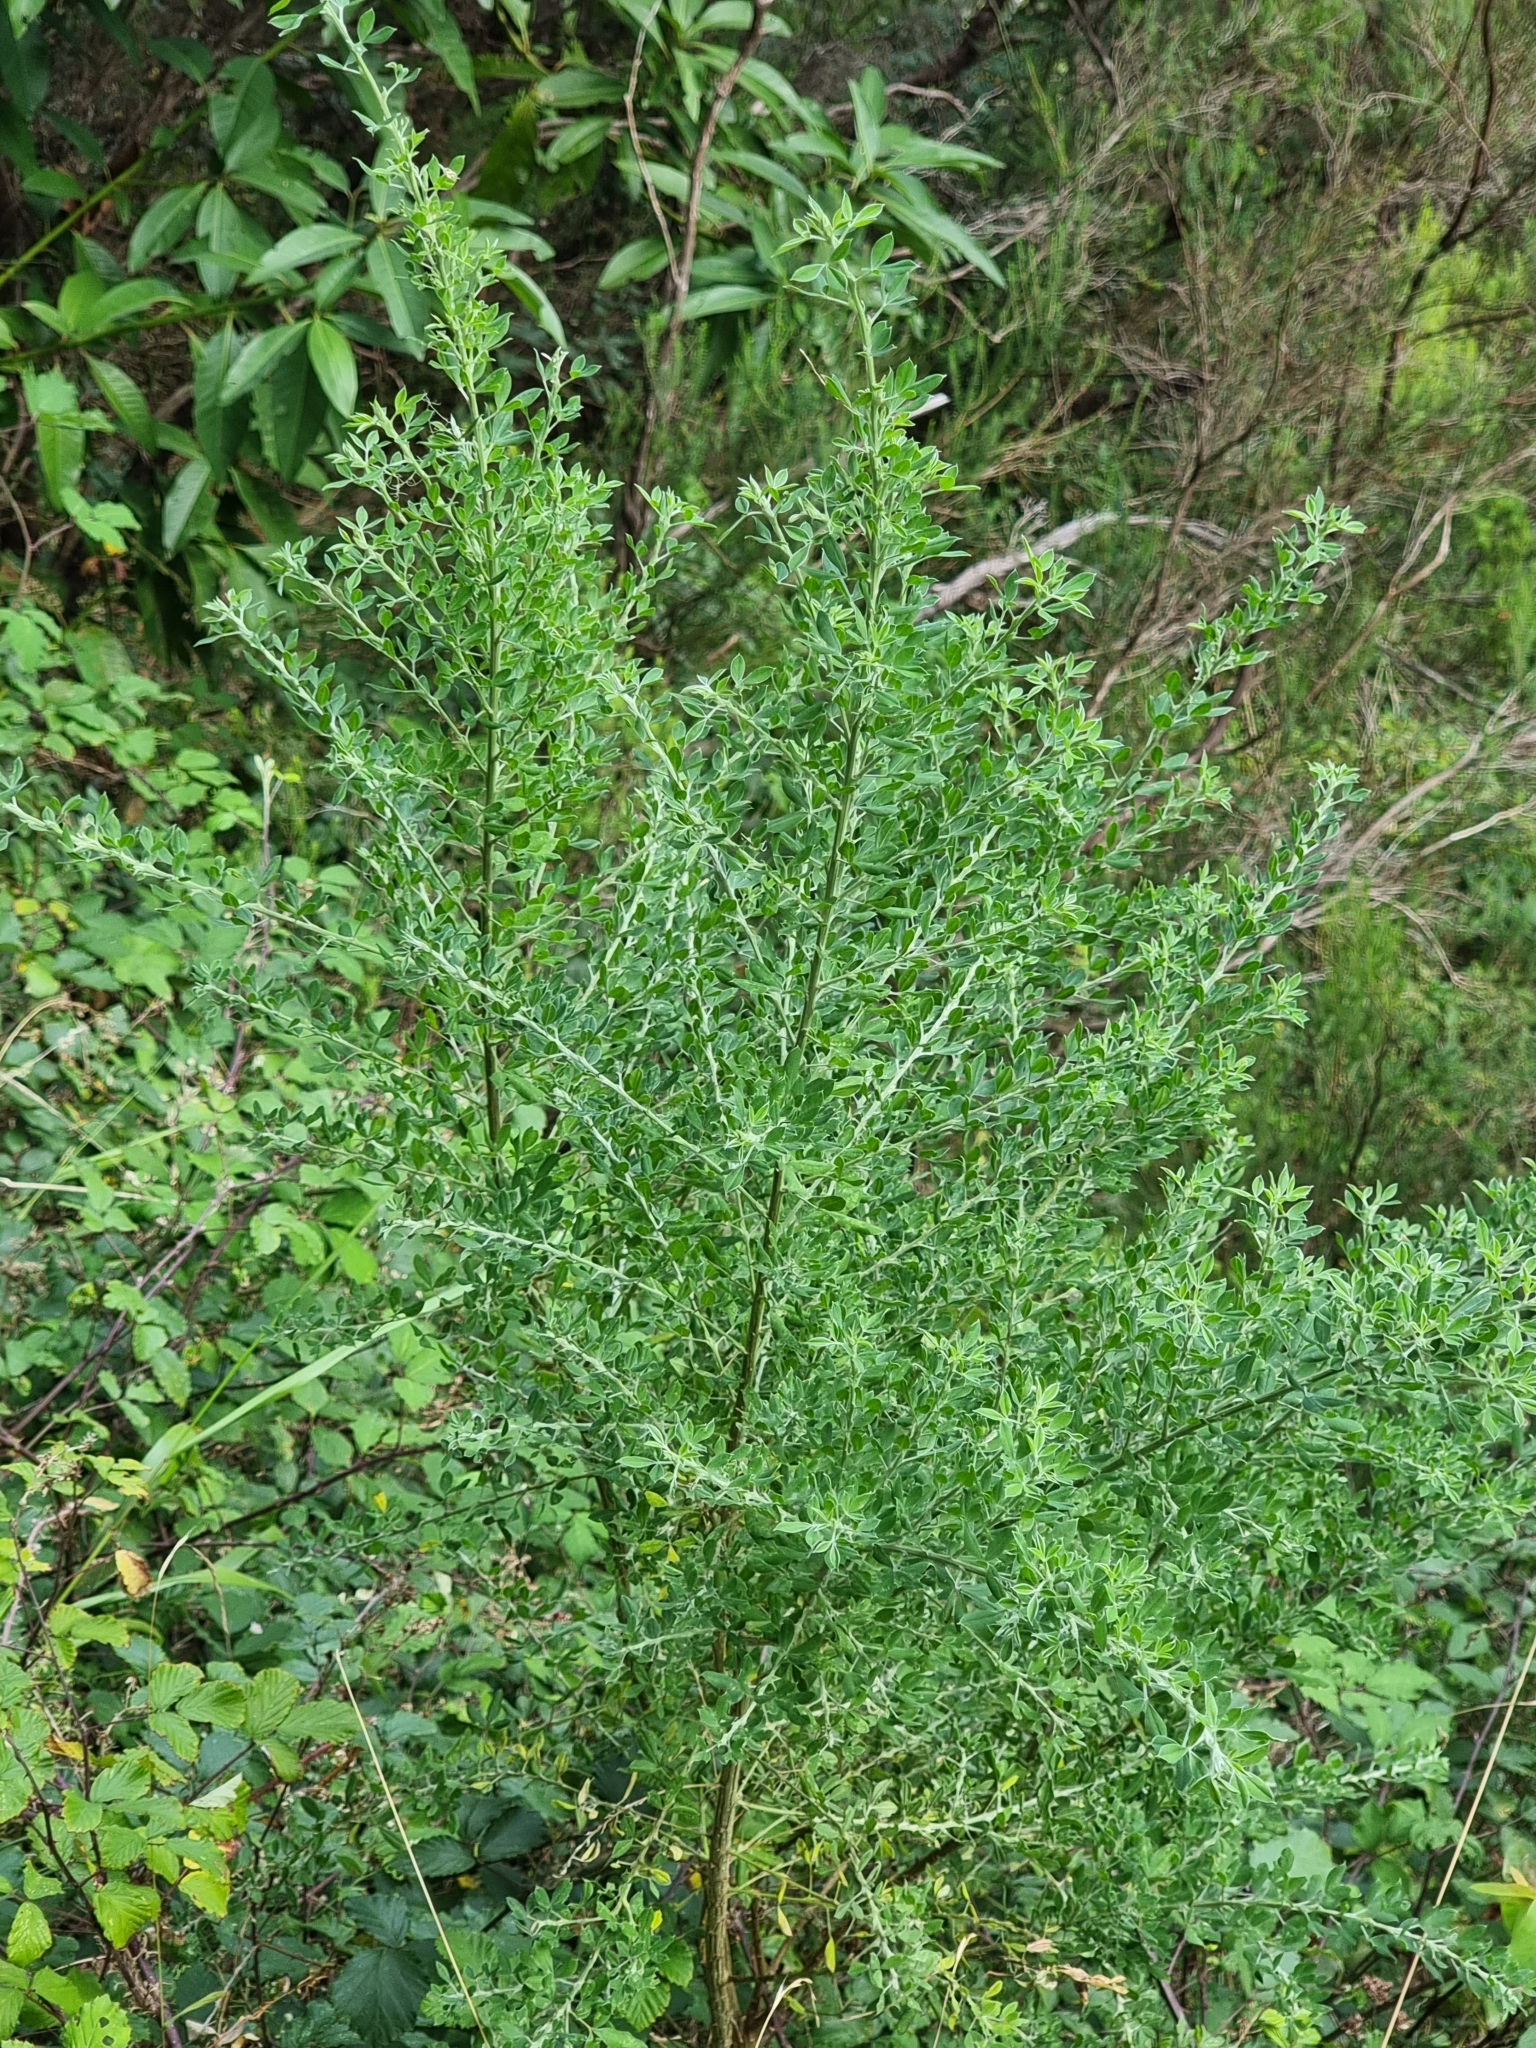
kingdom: Plantae
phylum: Tracheophyta
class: Magnoliopsida
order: Fabales
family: Fabaceae
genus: Genista
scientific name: Genista maderensis
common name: Madeira dyer's greenweed
